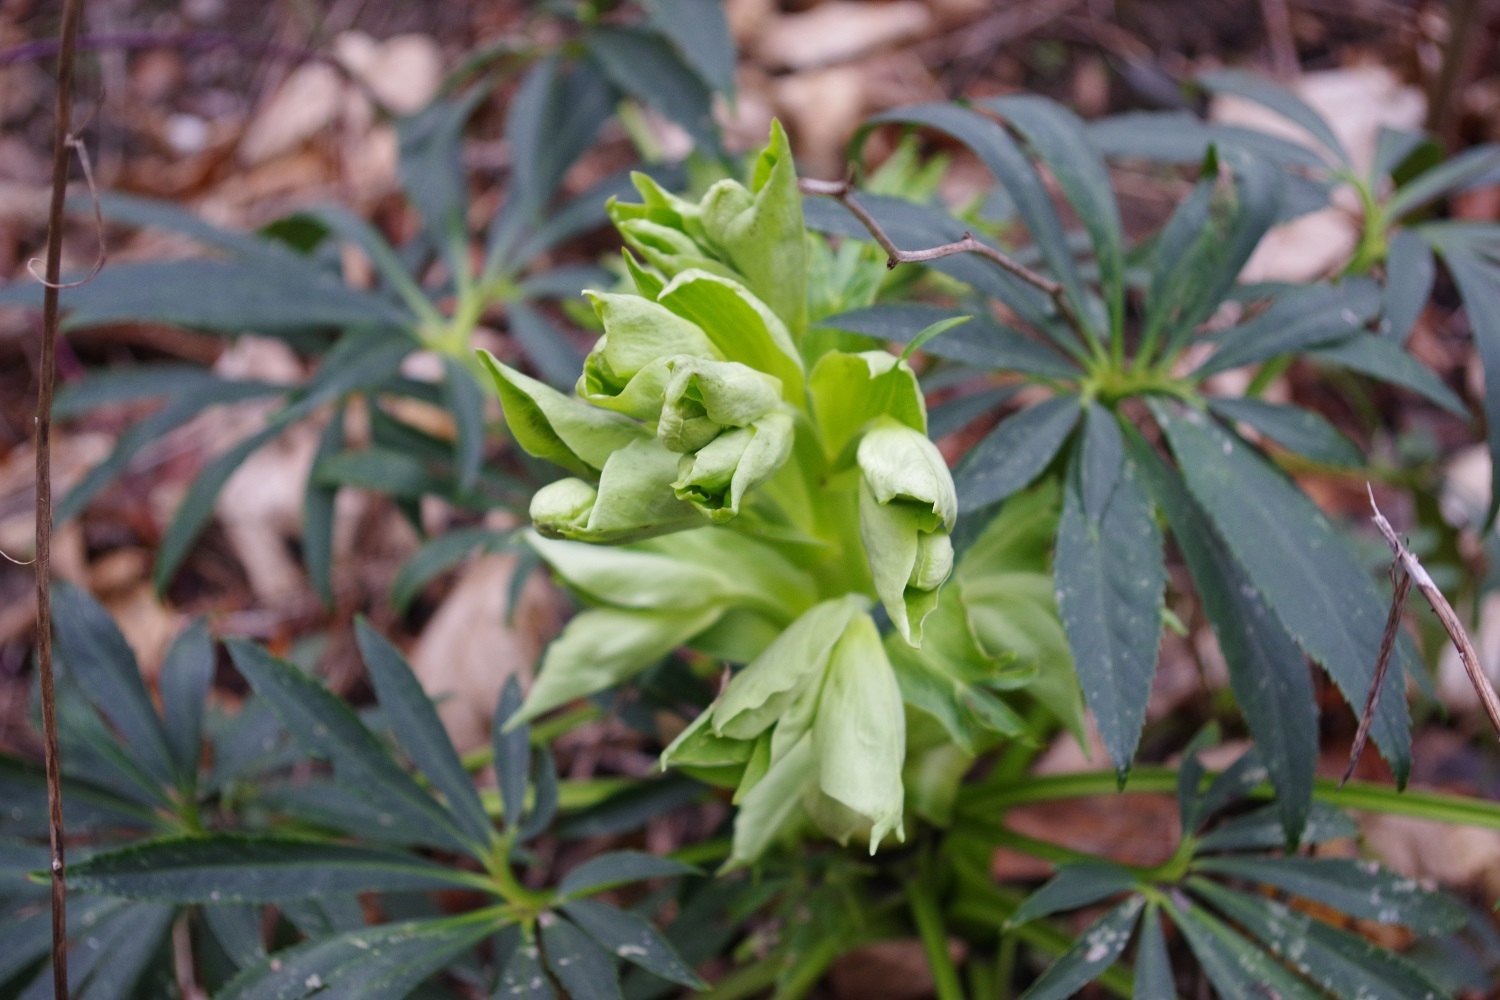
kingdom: Plantae
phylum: Tracheophyta
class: Magnoliopsida
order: Ranunculales
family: Ranunculaceae
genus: Helleborus
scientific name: Helleborus foetidus
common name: Stinking hellebore
